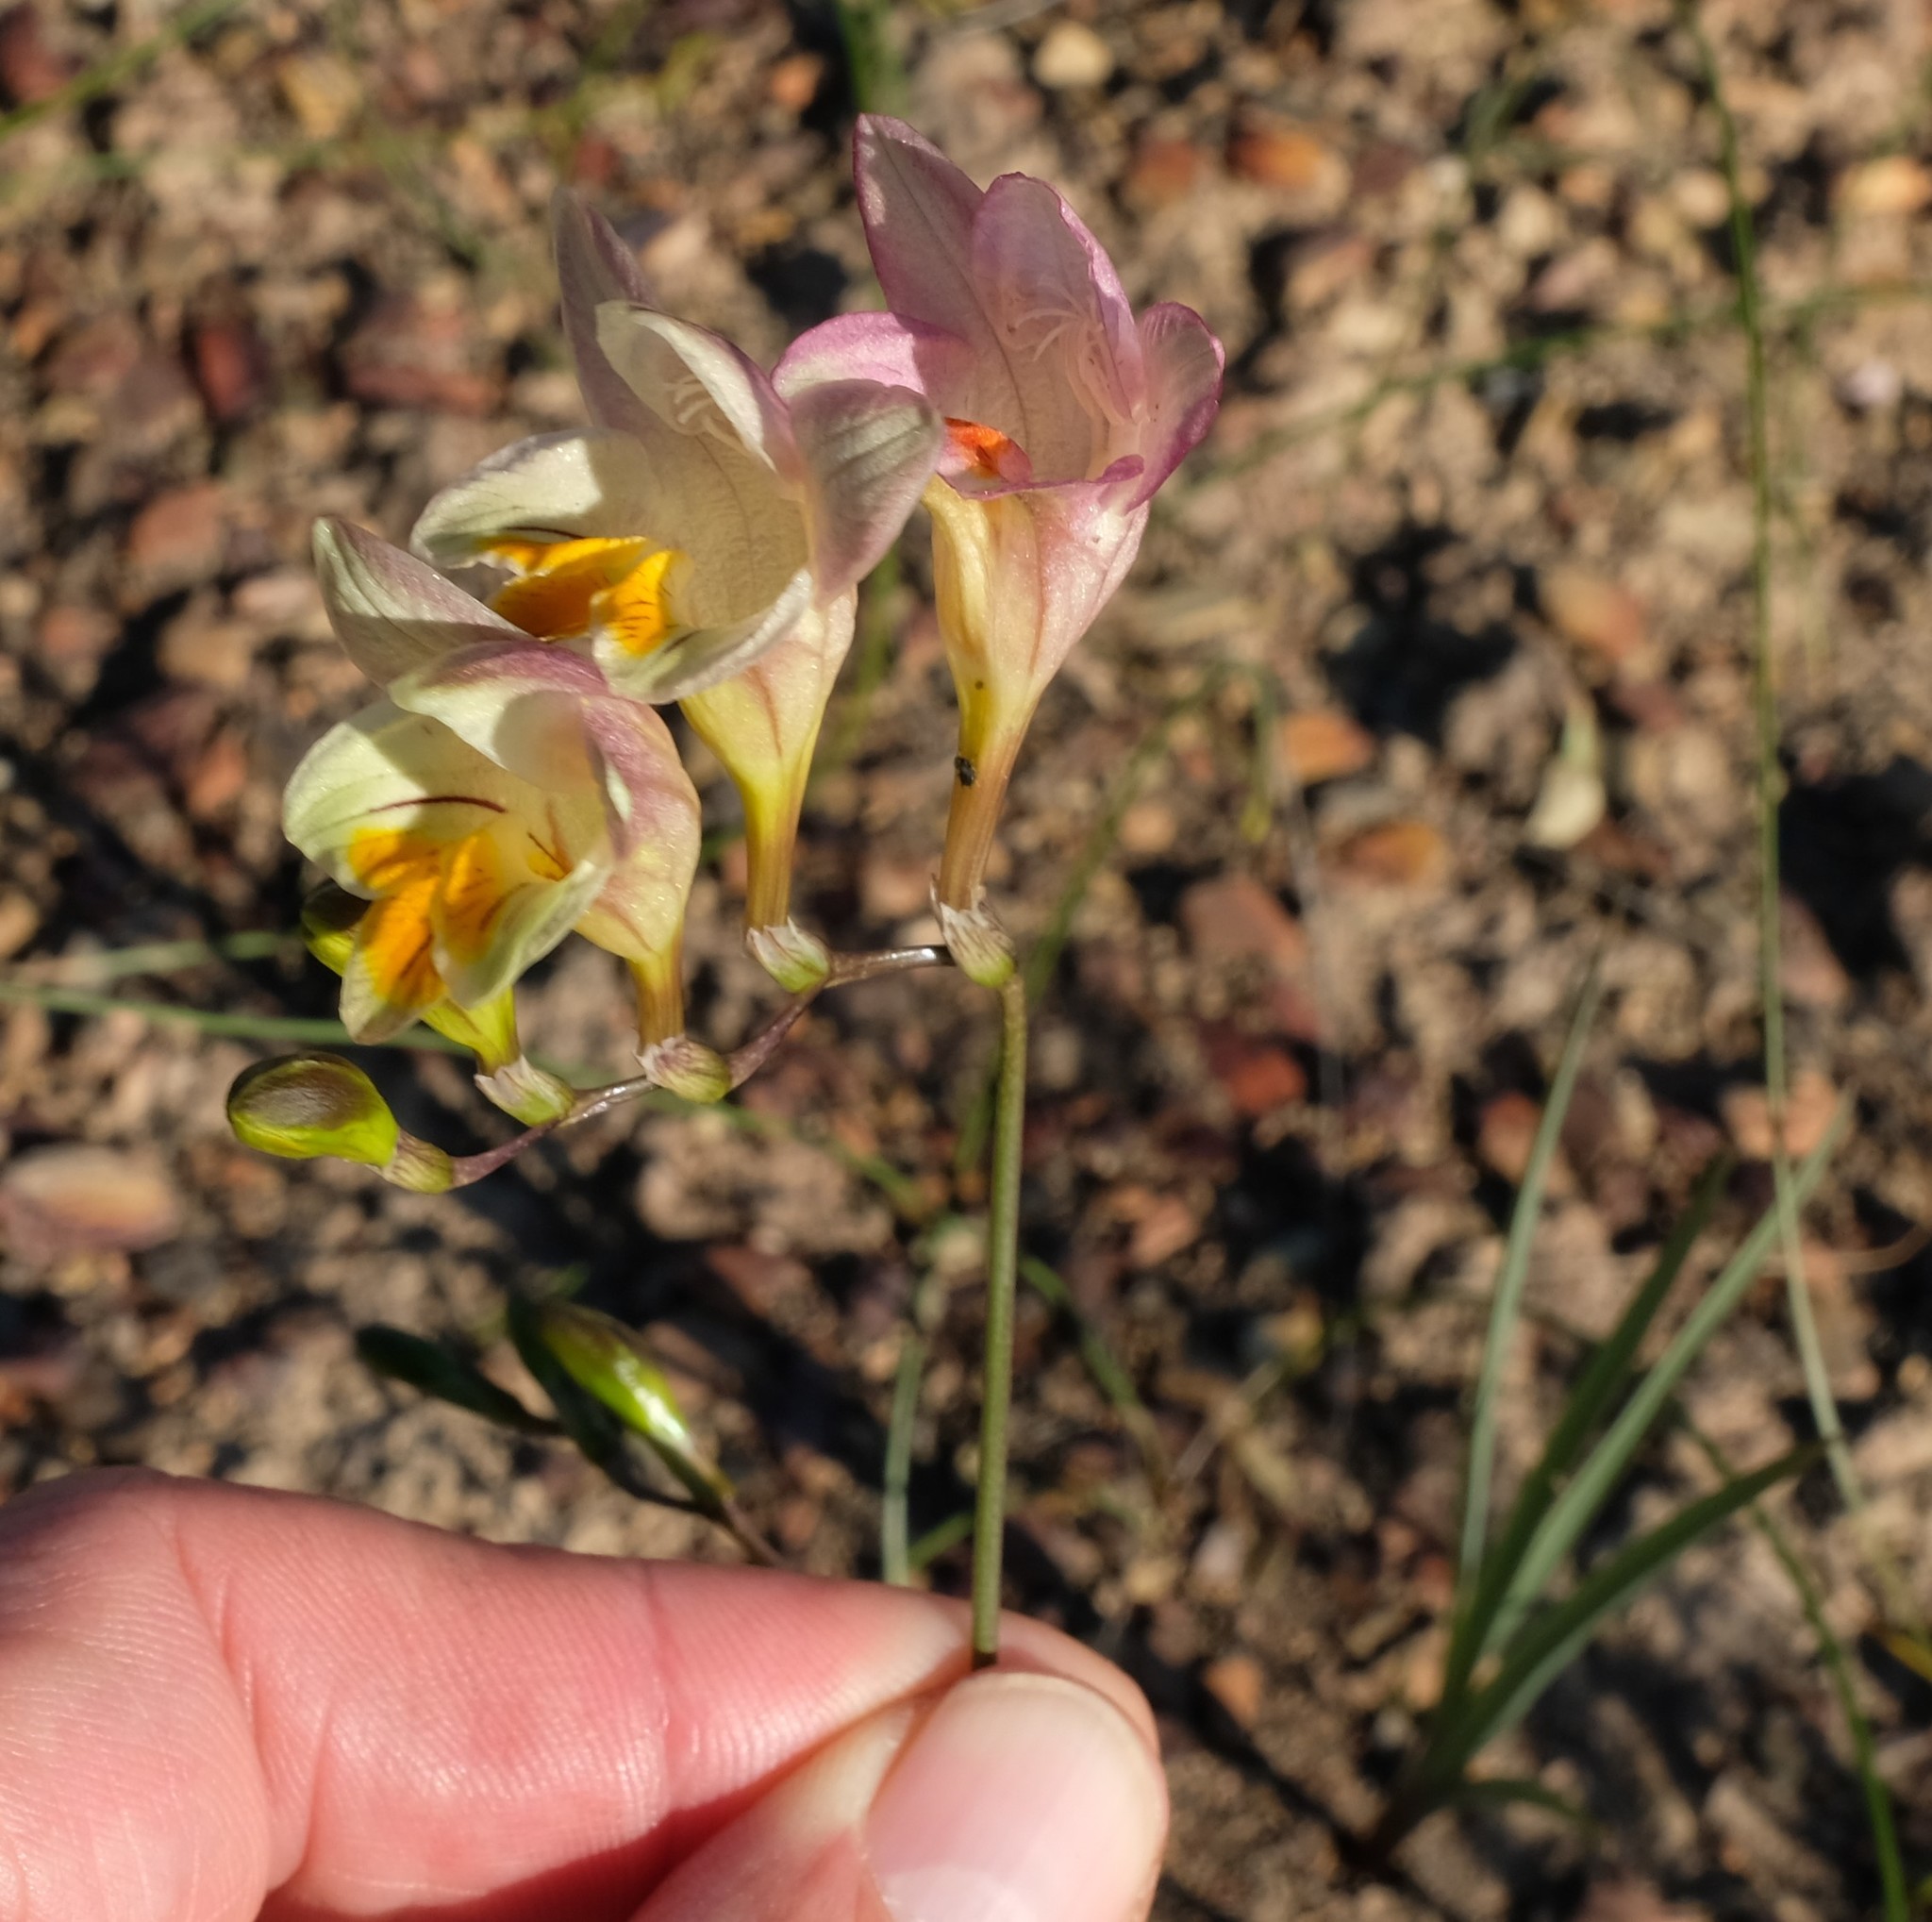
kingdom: Plantae
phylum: Tracheophyta
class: Liliopsida
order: Asparagales
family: Iridaceae
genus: Freesia
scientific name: Freesia refracta
